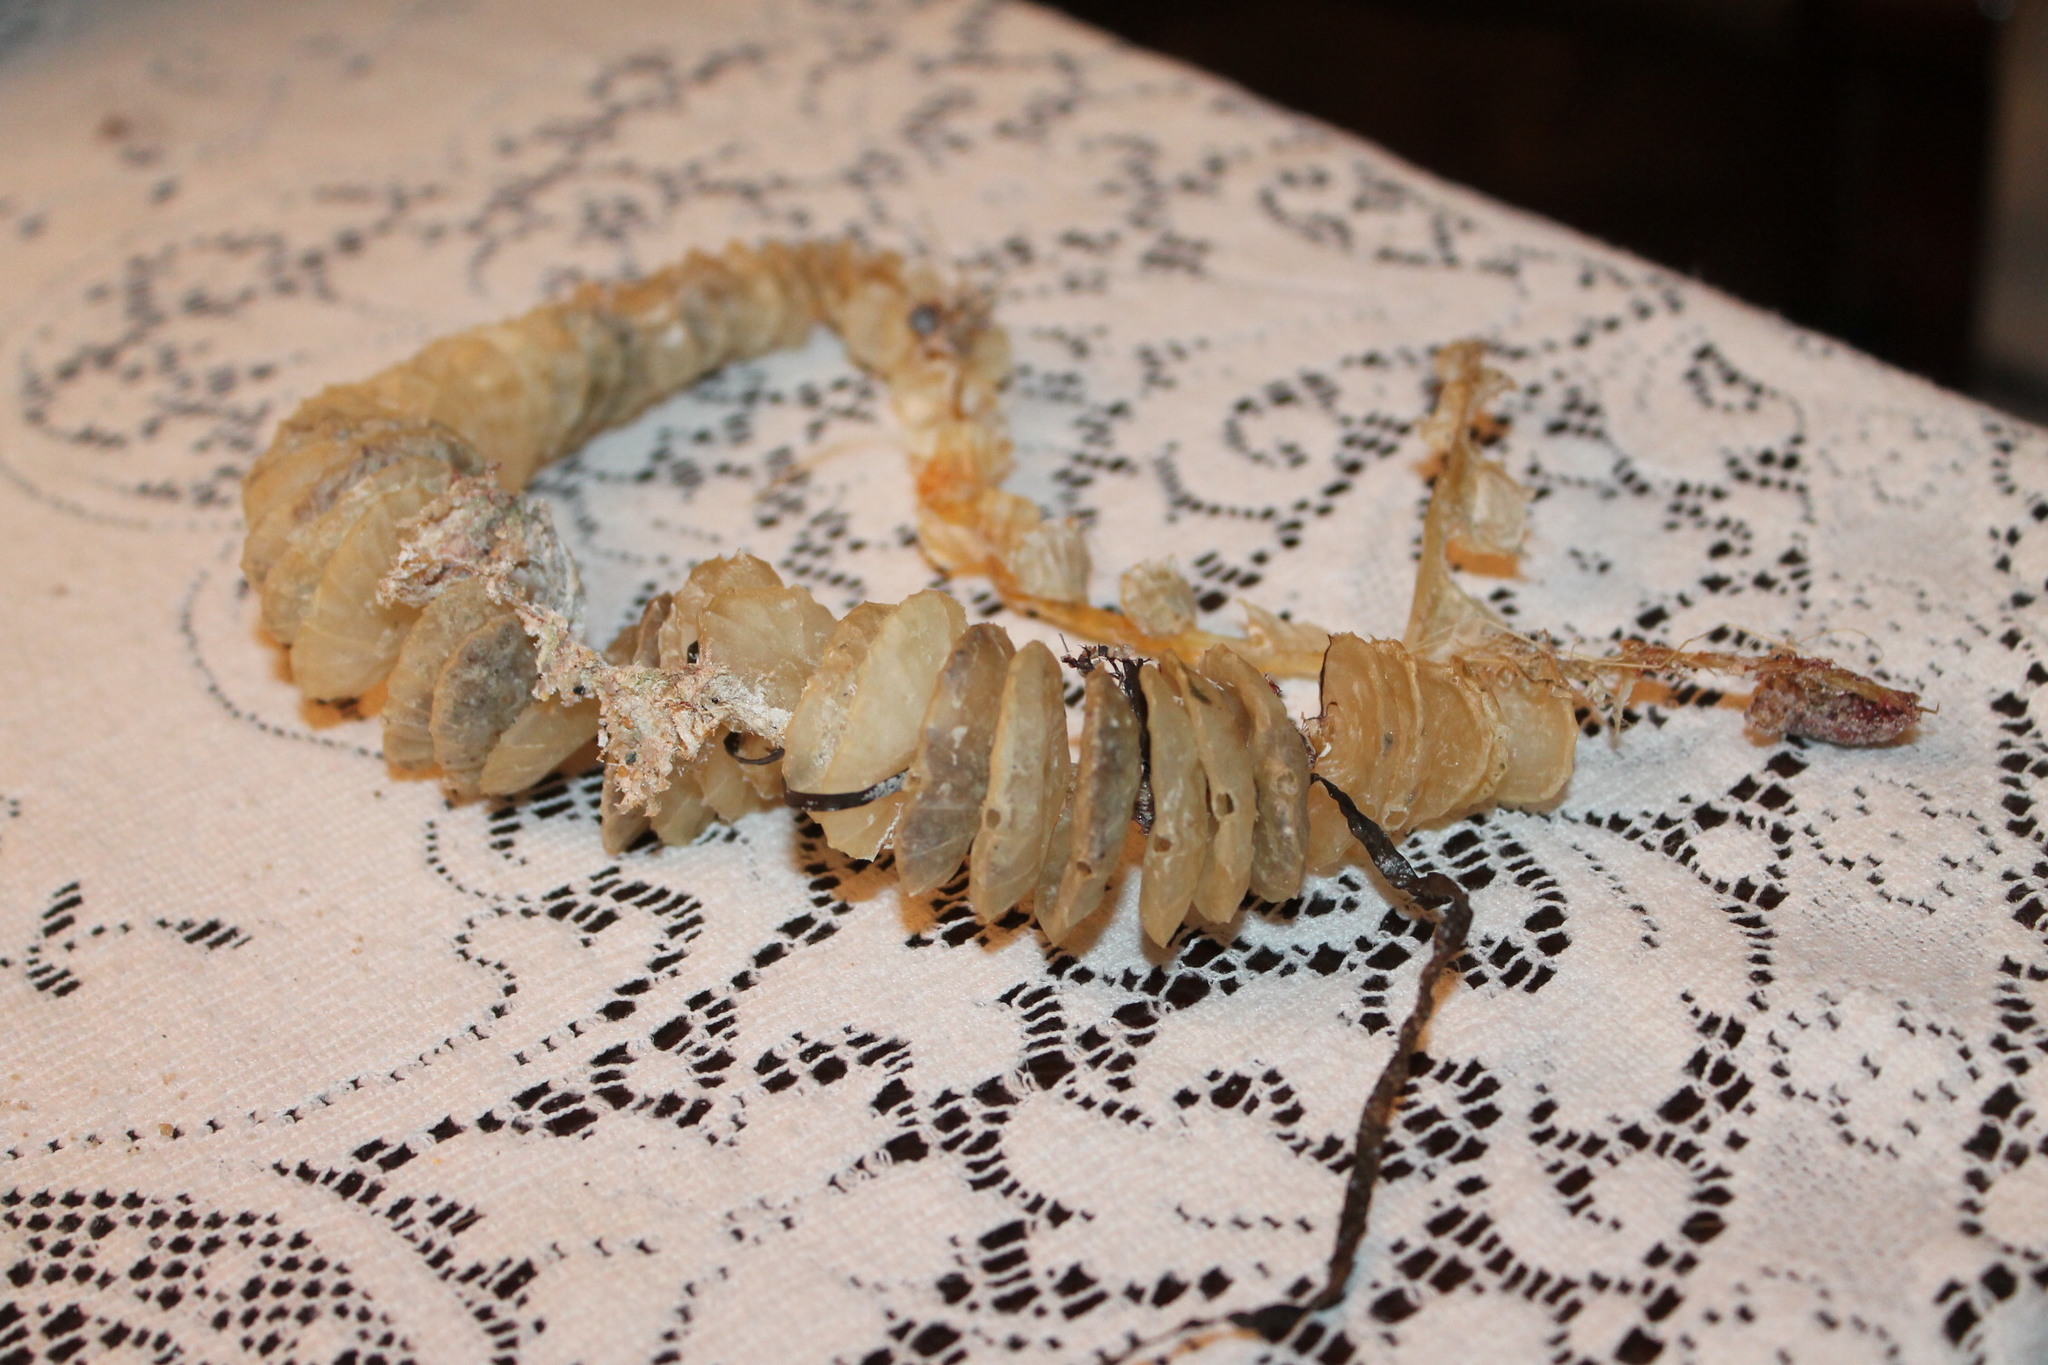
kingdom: Animalia
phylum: Mollusca
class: Gastropoda
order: Neogastropoda
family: Busyconidae
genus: Busycotypus
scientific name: Busycotypus canaliculatus
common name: Channeled whelk
